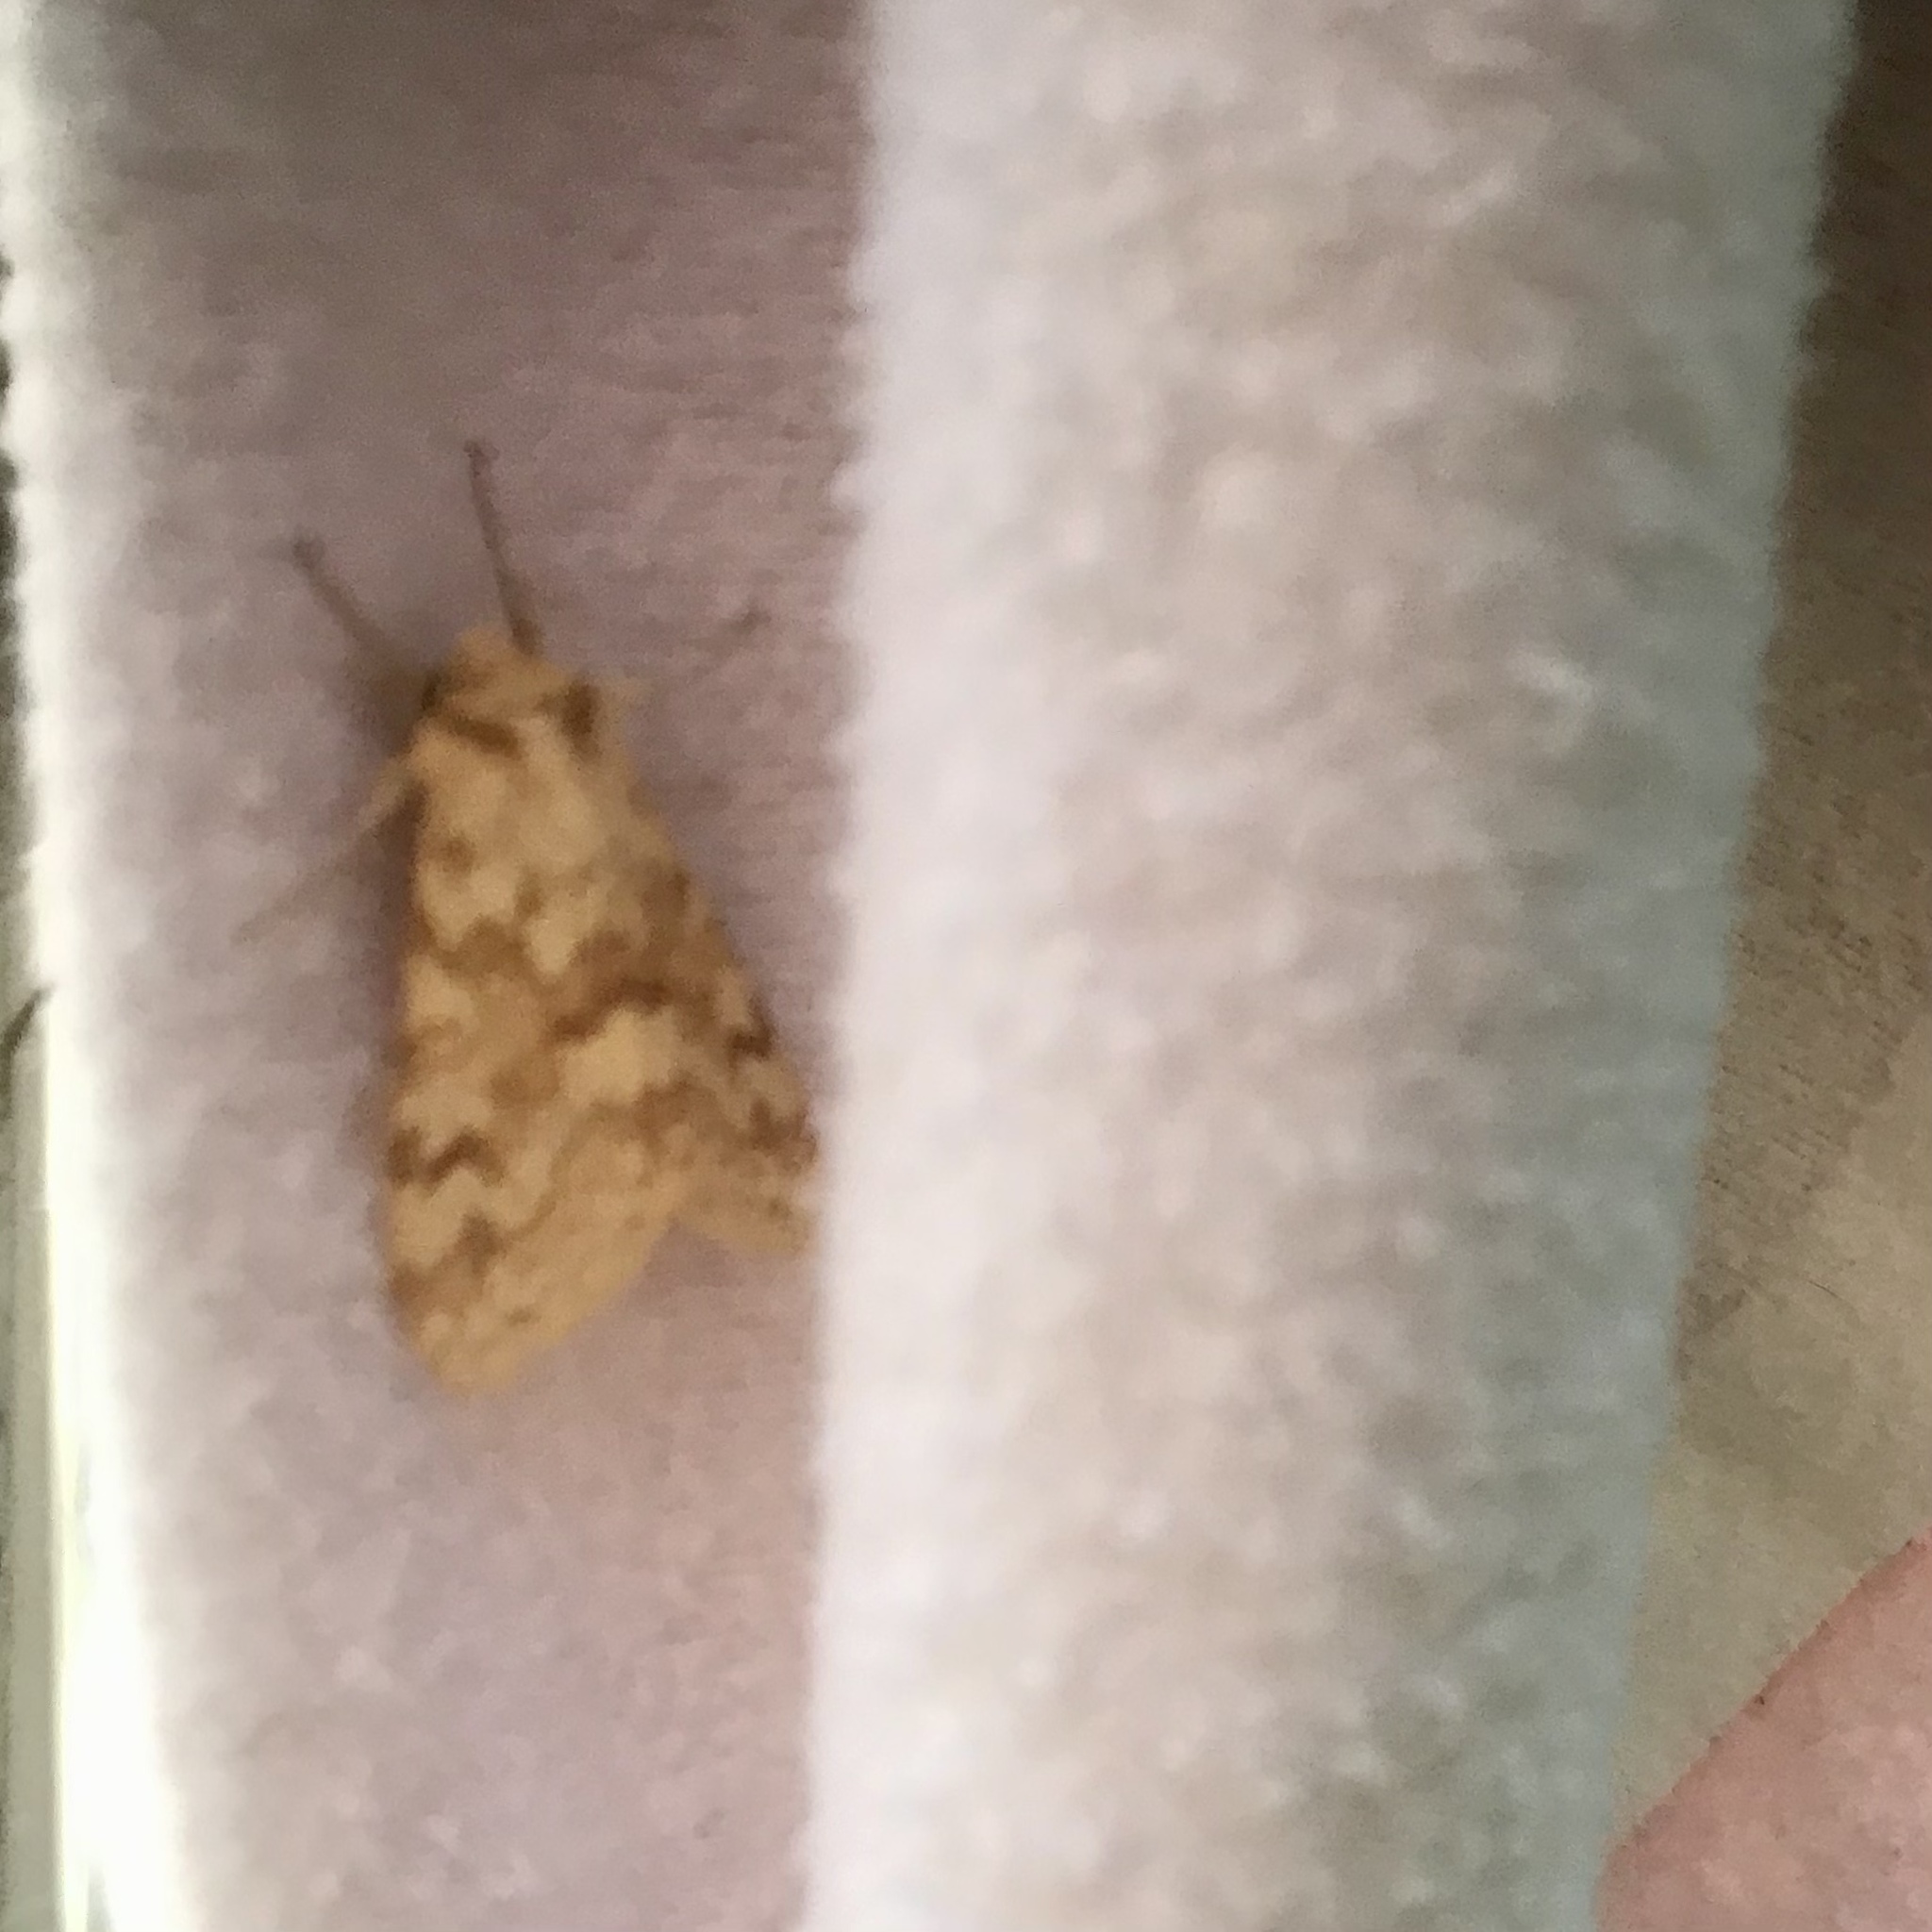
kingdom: Animalia
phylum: Arthropoda
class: Insecta
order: Lepidoptera
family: Erebidae
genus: Lophocampa
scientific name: Lophocampa maculata
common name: Spotted tussock moth
